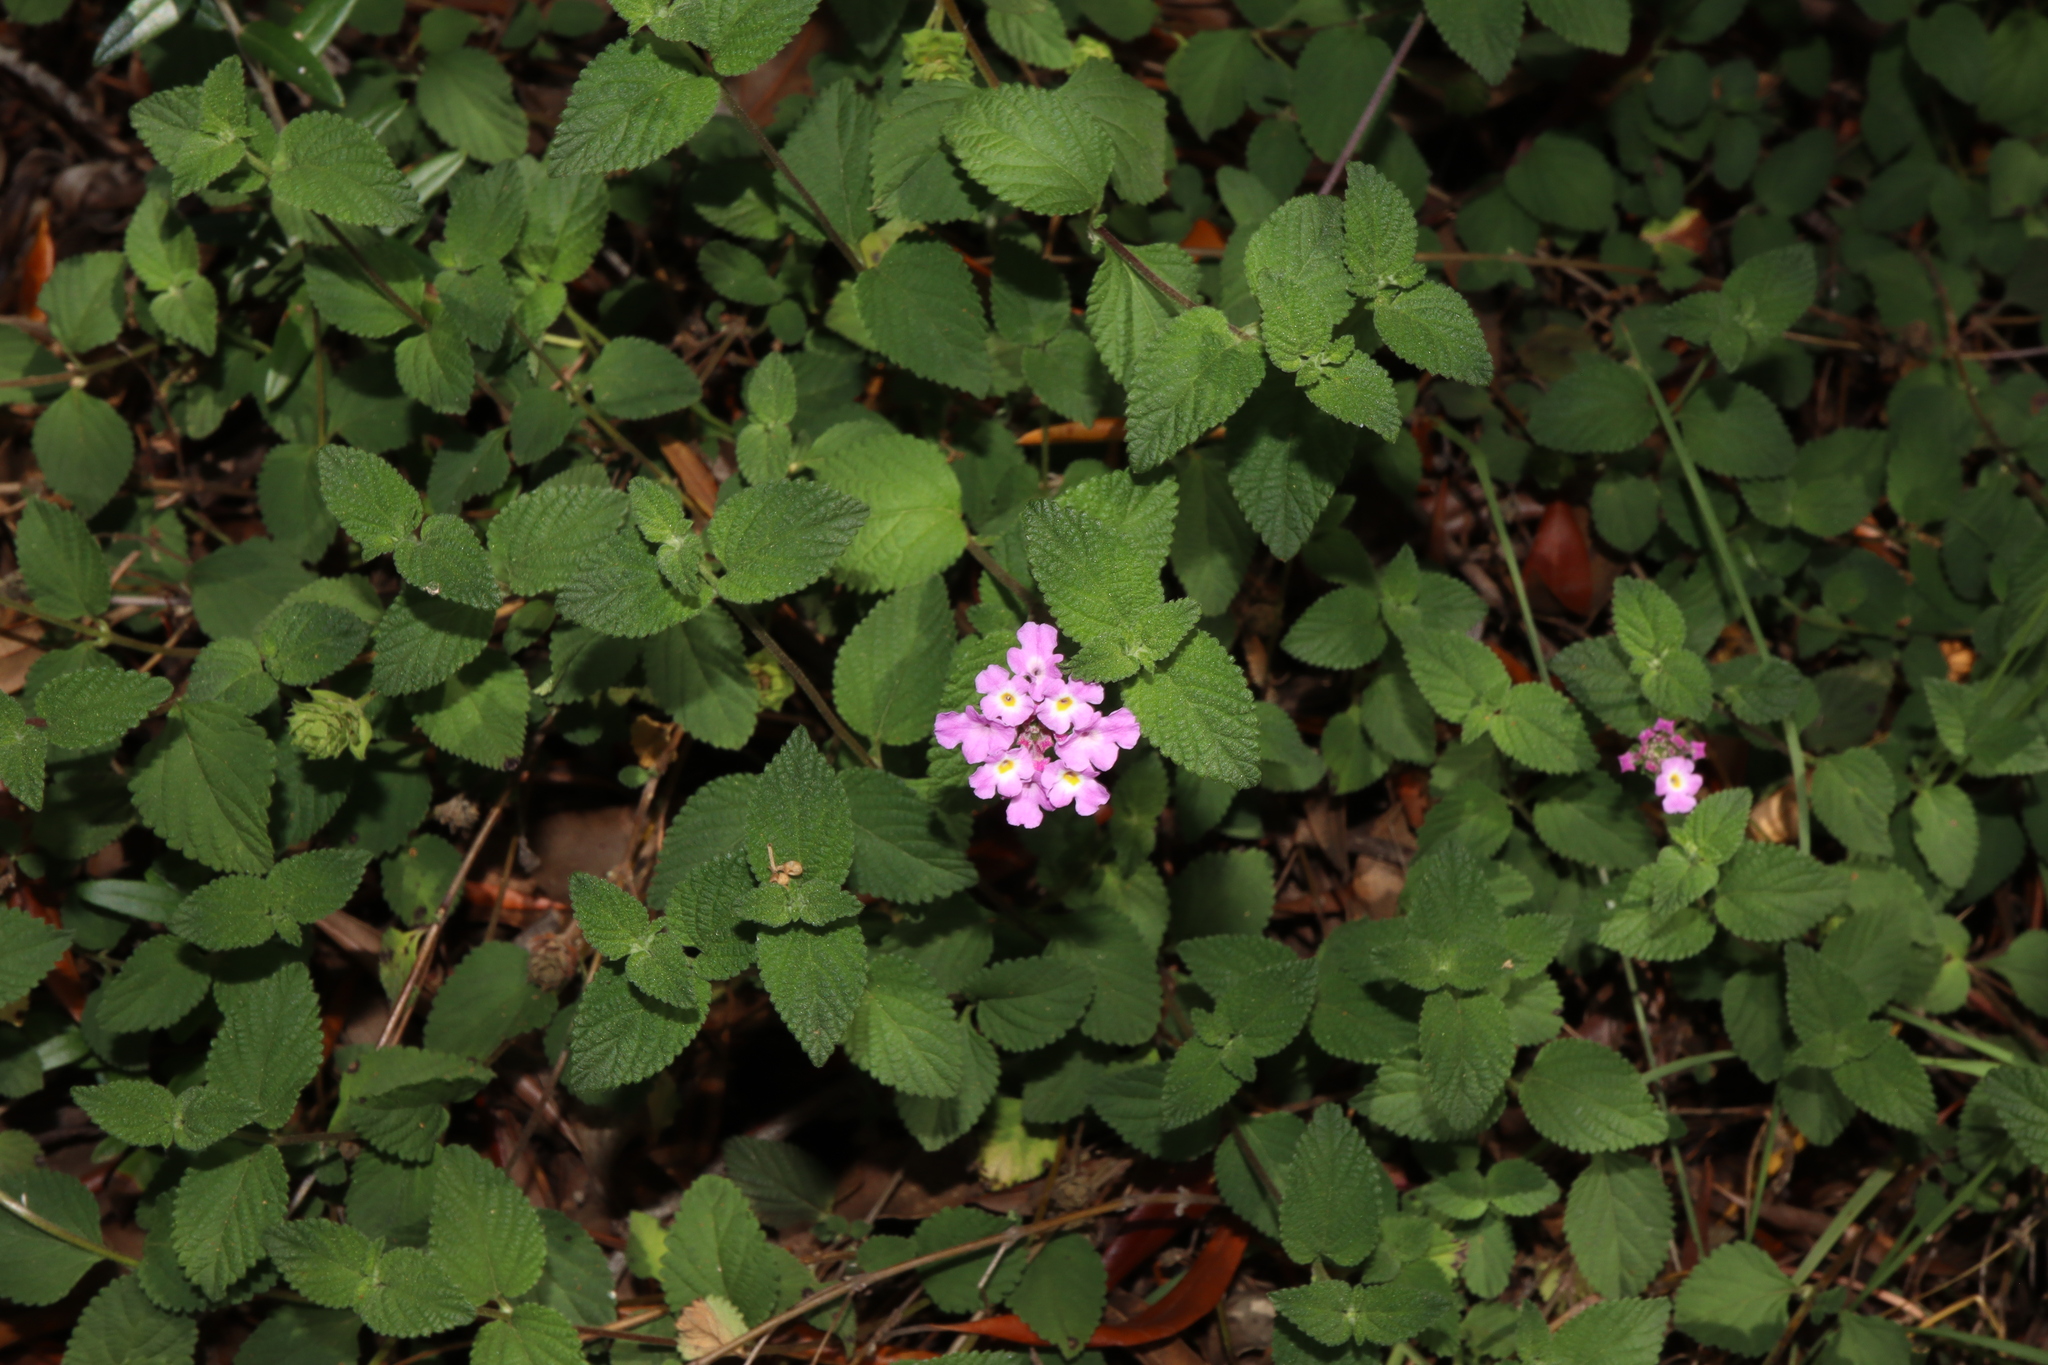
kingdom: Plantae
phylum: Tracheophyta
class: Magnoliopsida
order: Lamiales
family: Verbenaceae
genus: Lantana
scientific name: Lantana montevidensis
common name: Trailing shrubverbena
